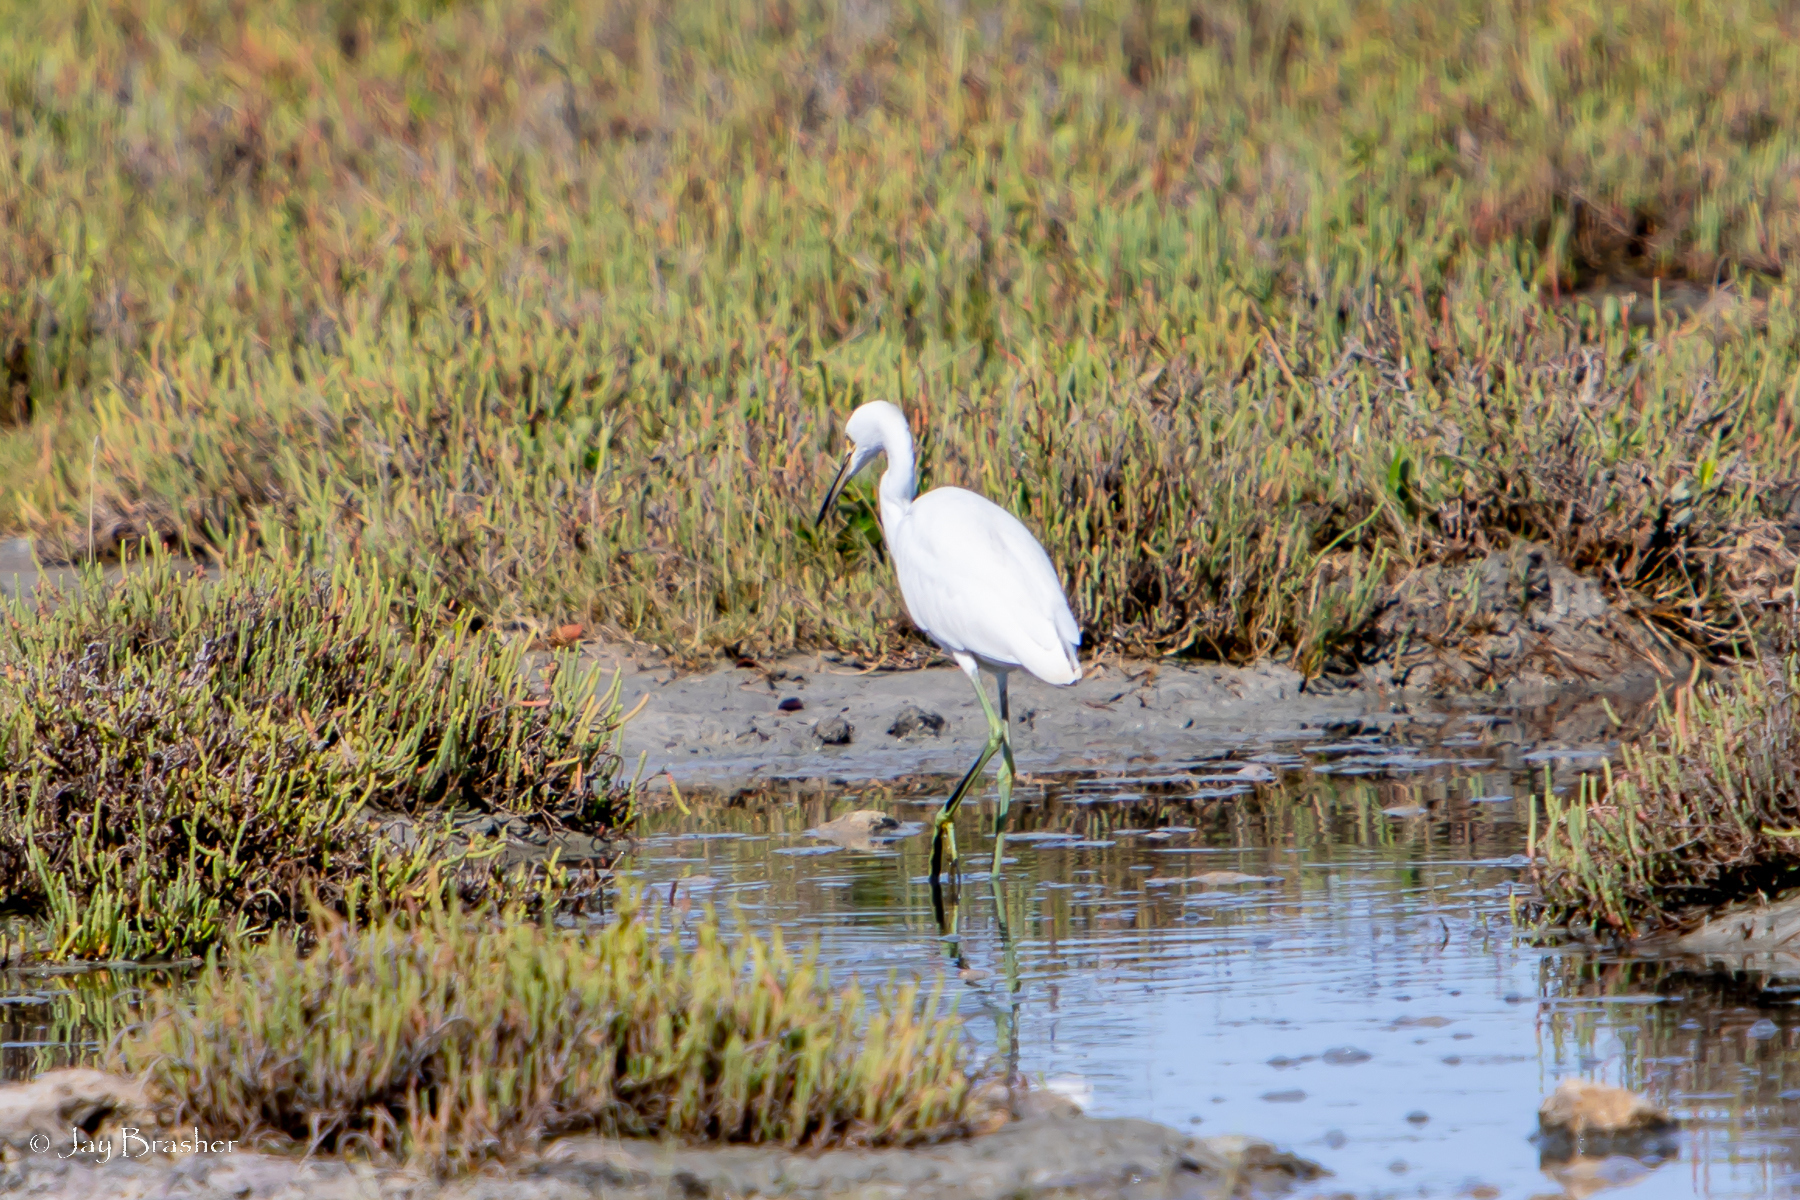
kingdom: Animalia
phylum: Chordata
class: Aves
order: Pelecaniformes
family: Ardeidae
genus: Egretta
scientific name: Egretta thula
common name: Snowy egret
